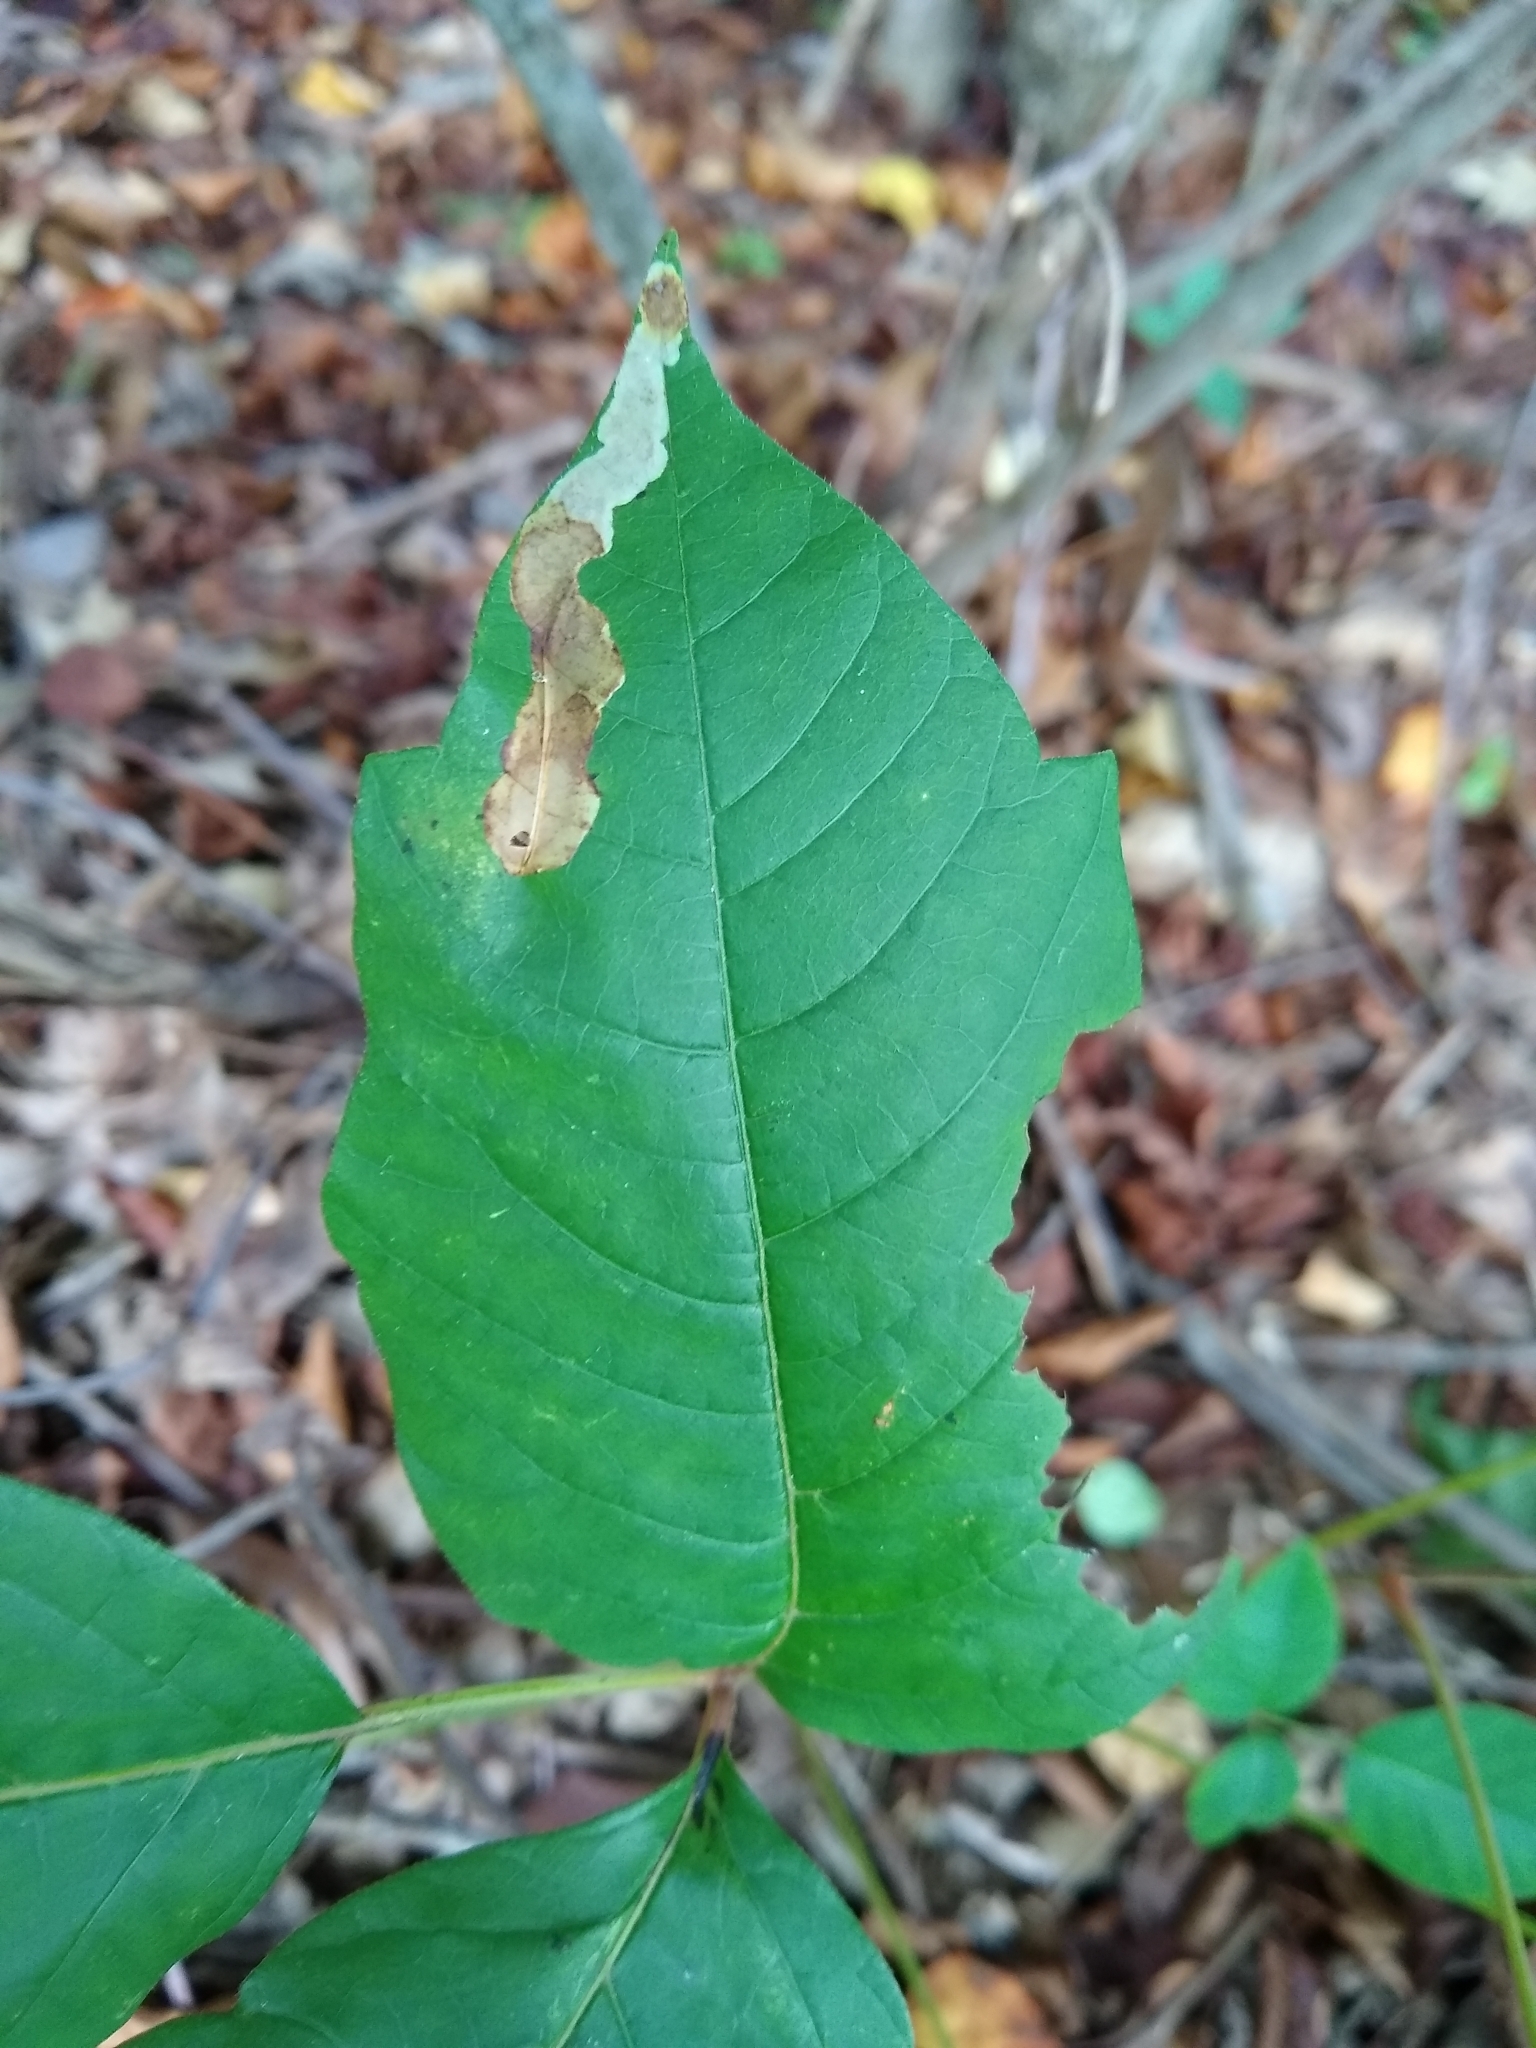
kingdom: Animalia
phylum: Arthropoda
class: Insecta
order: Lepidoptera
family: Gracillariidae
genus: Cameraria
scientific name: Cameraria guttifinitella
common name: Poison ivy leaf-miner moth
